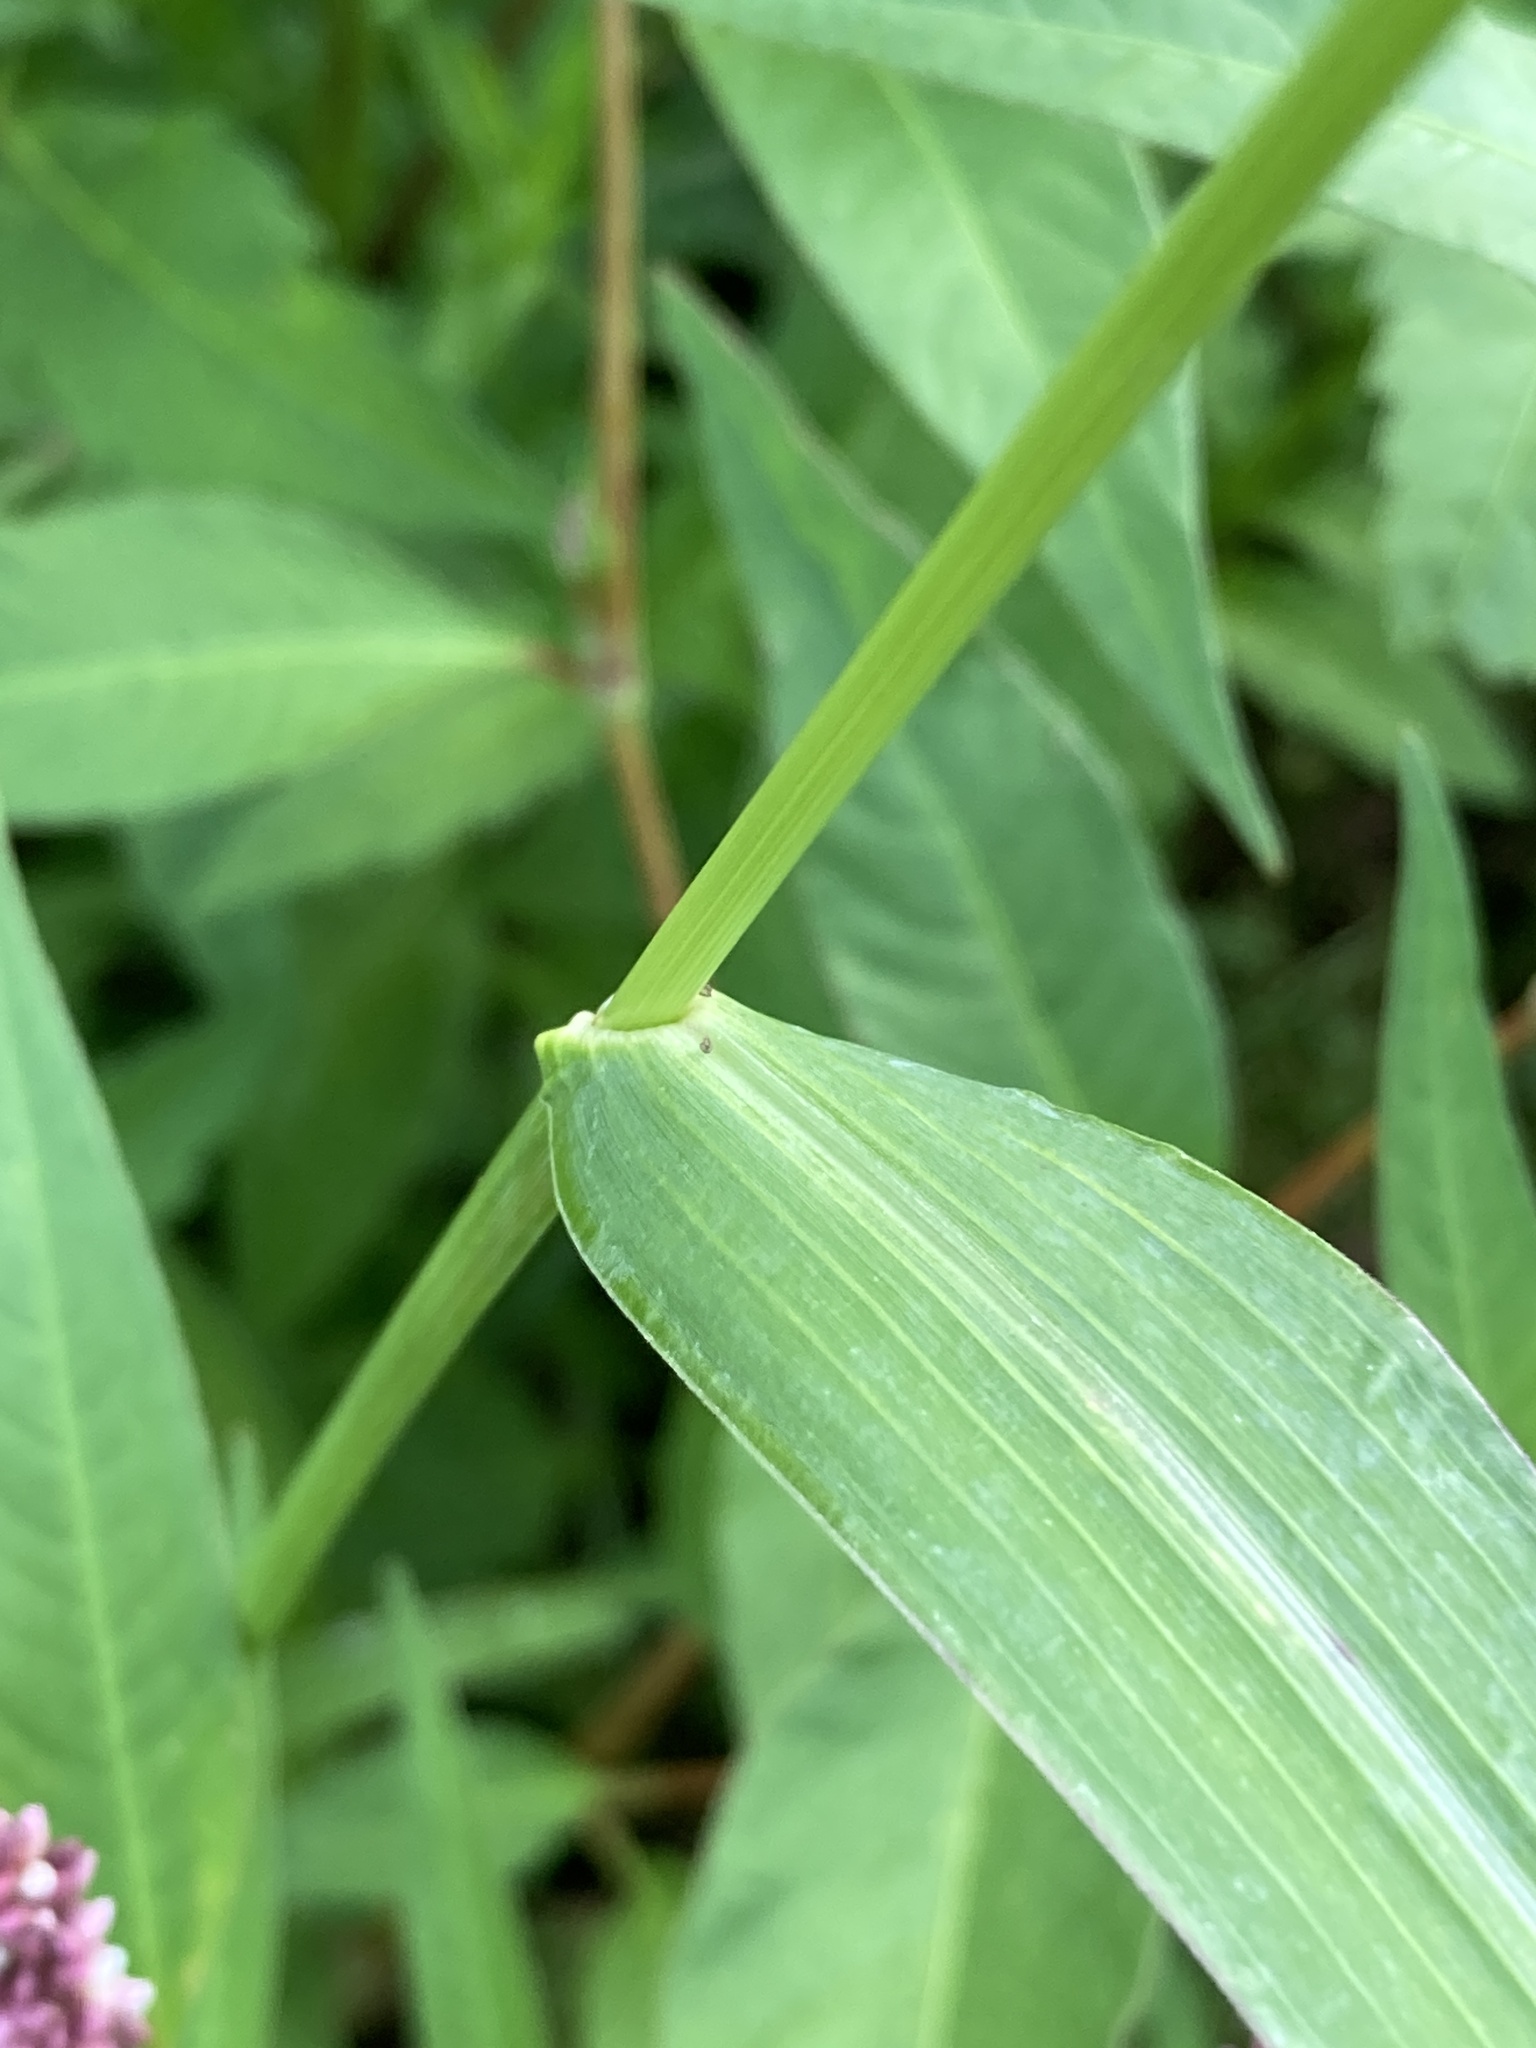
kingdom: Plantae
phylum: Tracheophyta
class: Liliopsida
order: Poales
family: Poaceae
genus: Echinochloa
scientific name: Echinochloa crus-galli
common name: Cockspur
